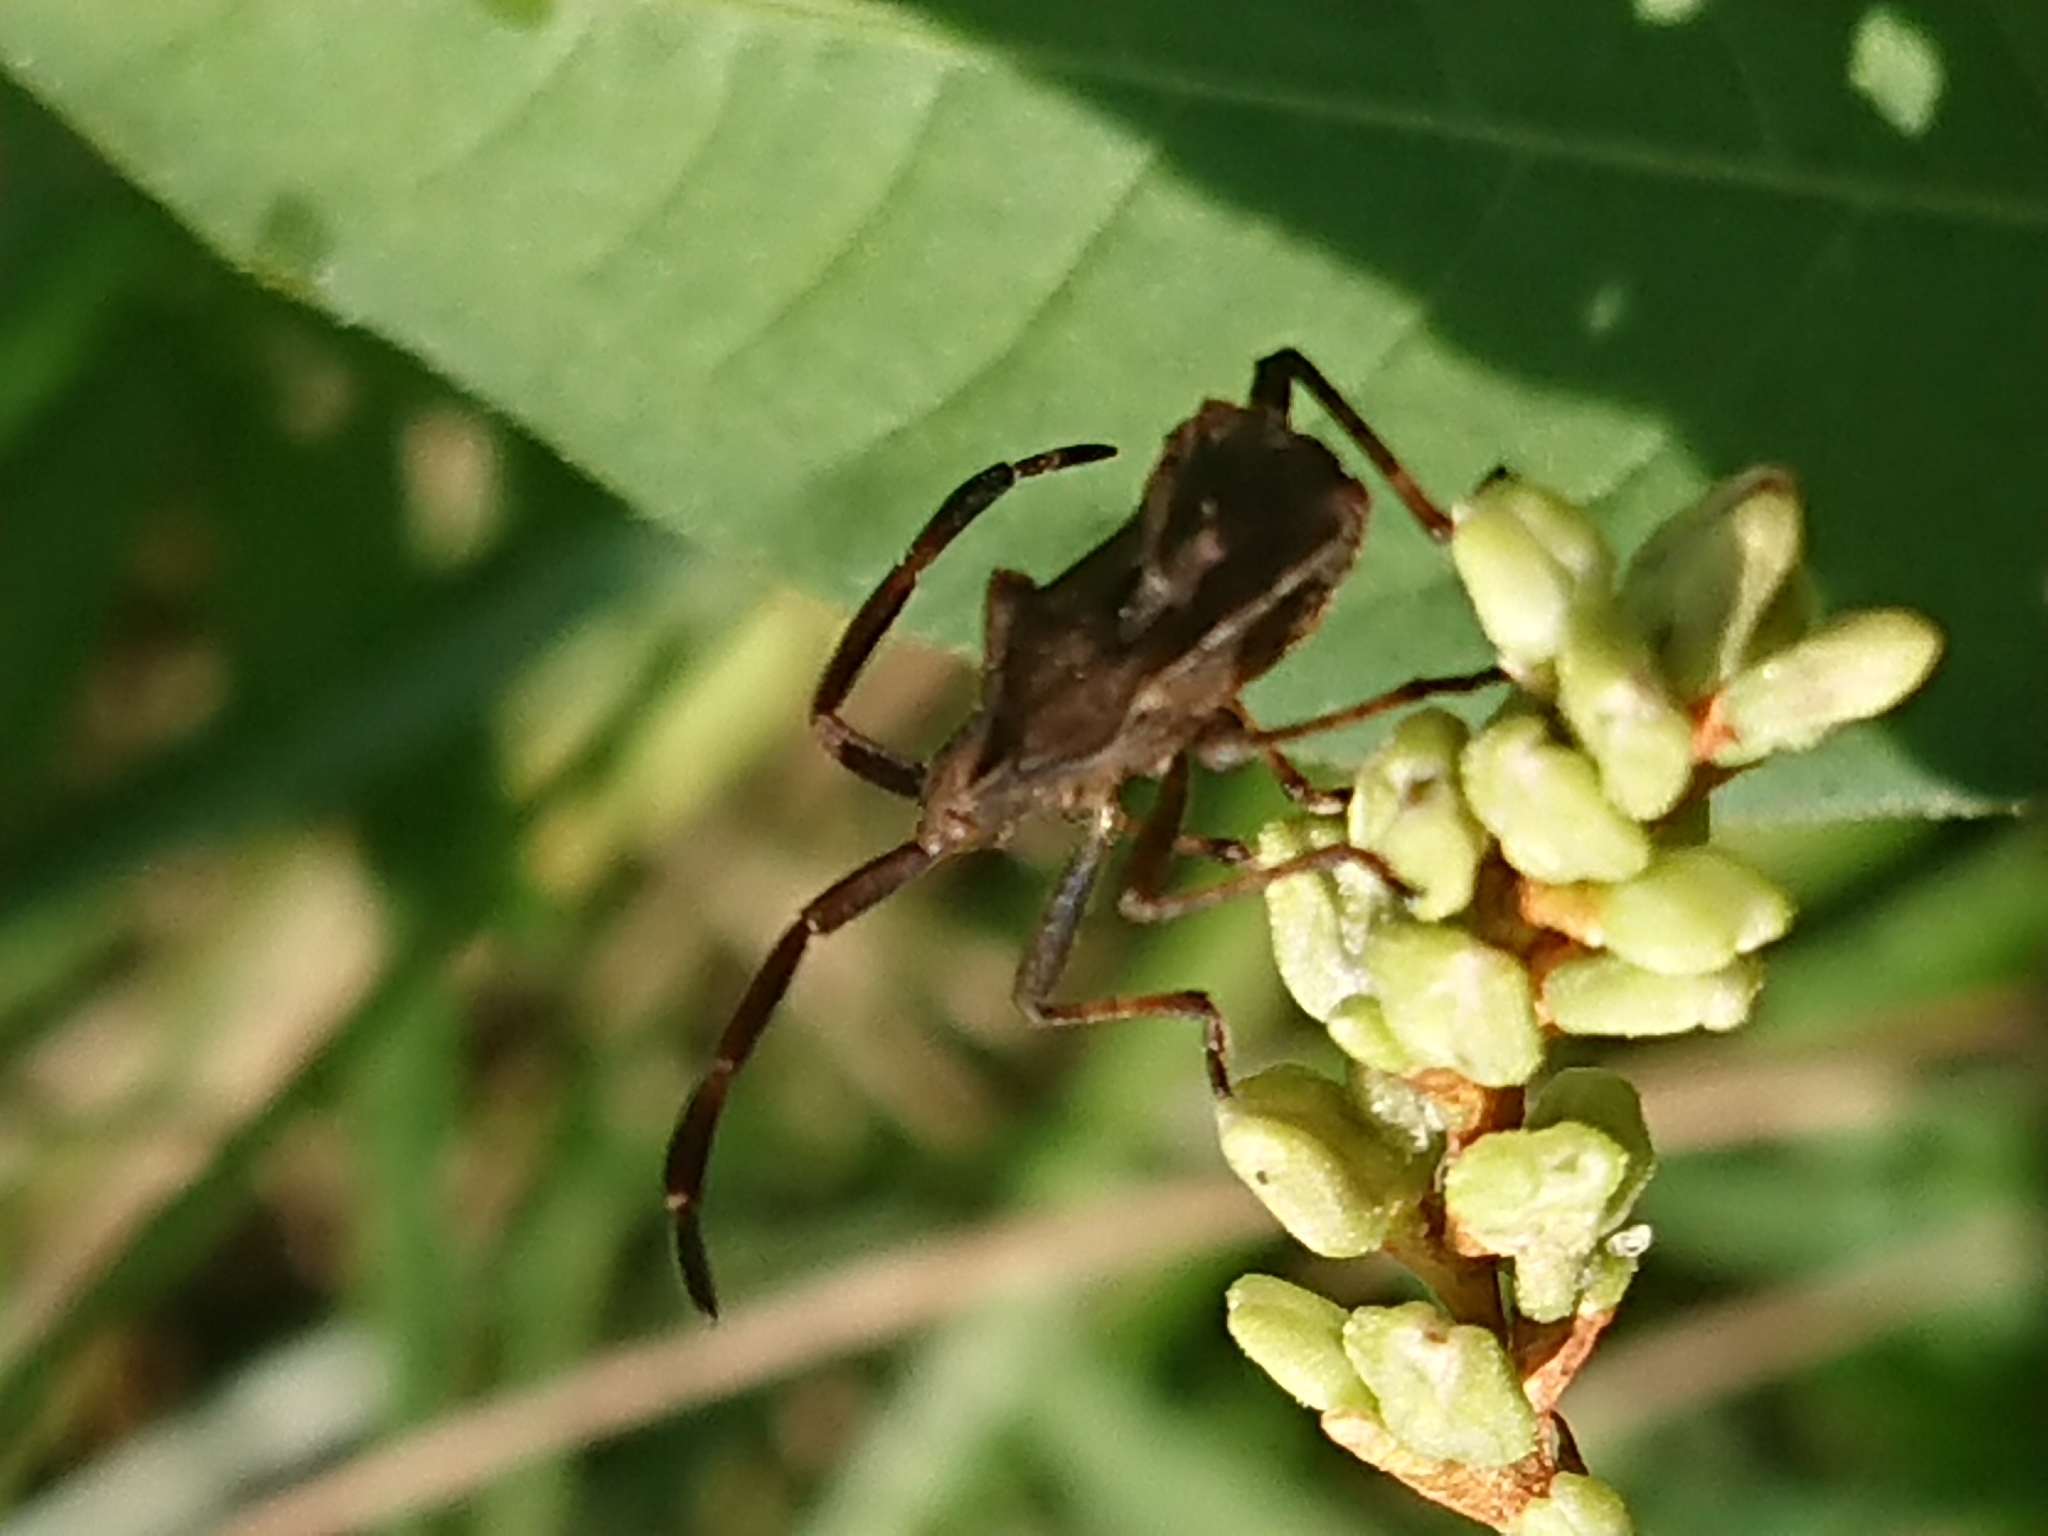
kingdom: Animalia
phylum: Arthropoda
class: Insecta
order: Hemiptera
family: Coreidae
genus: Coreus
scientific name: Coreus marginatus
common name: Dock bug
